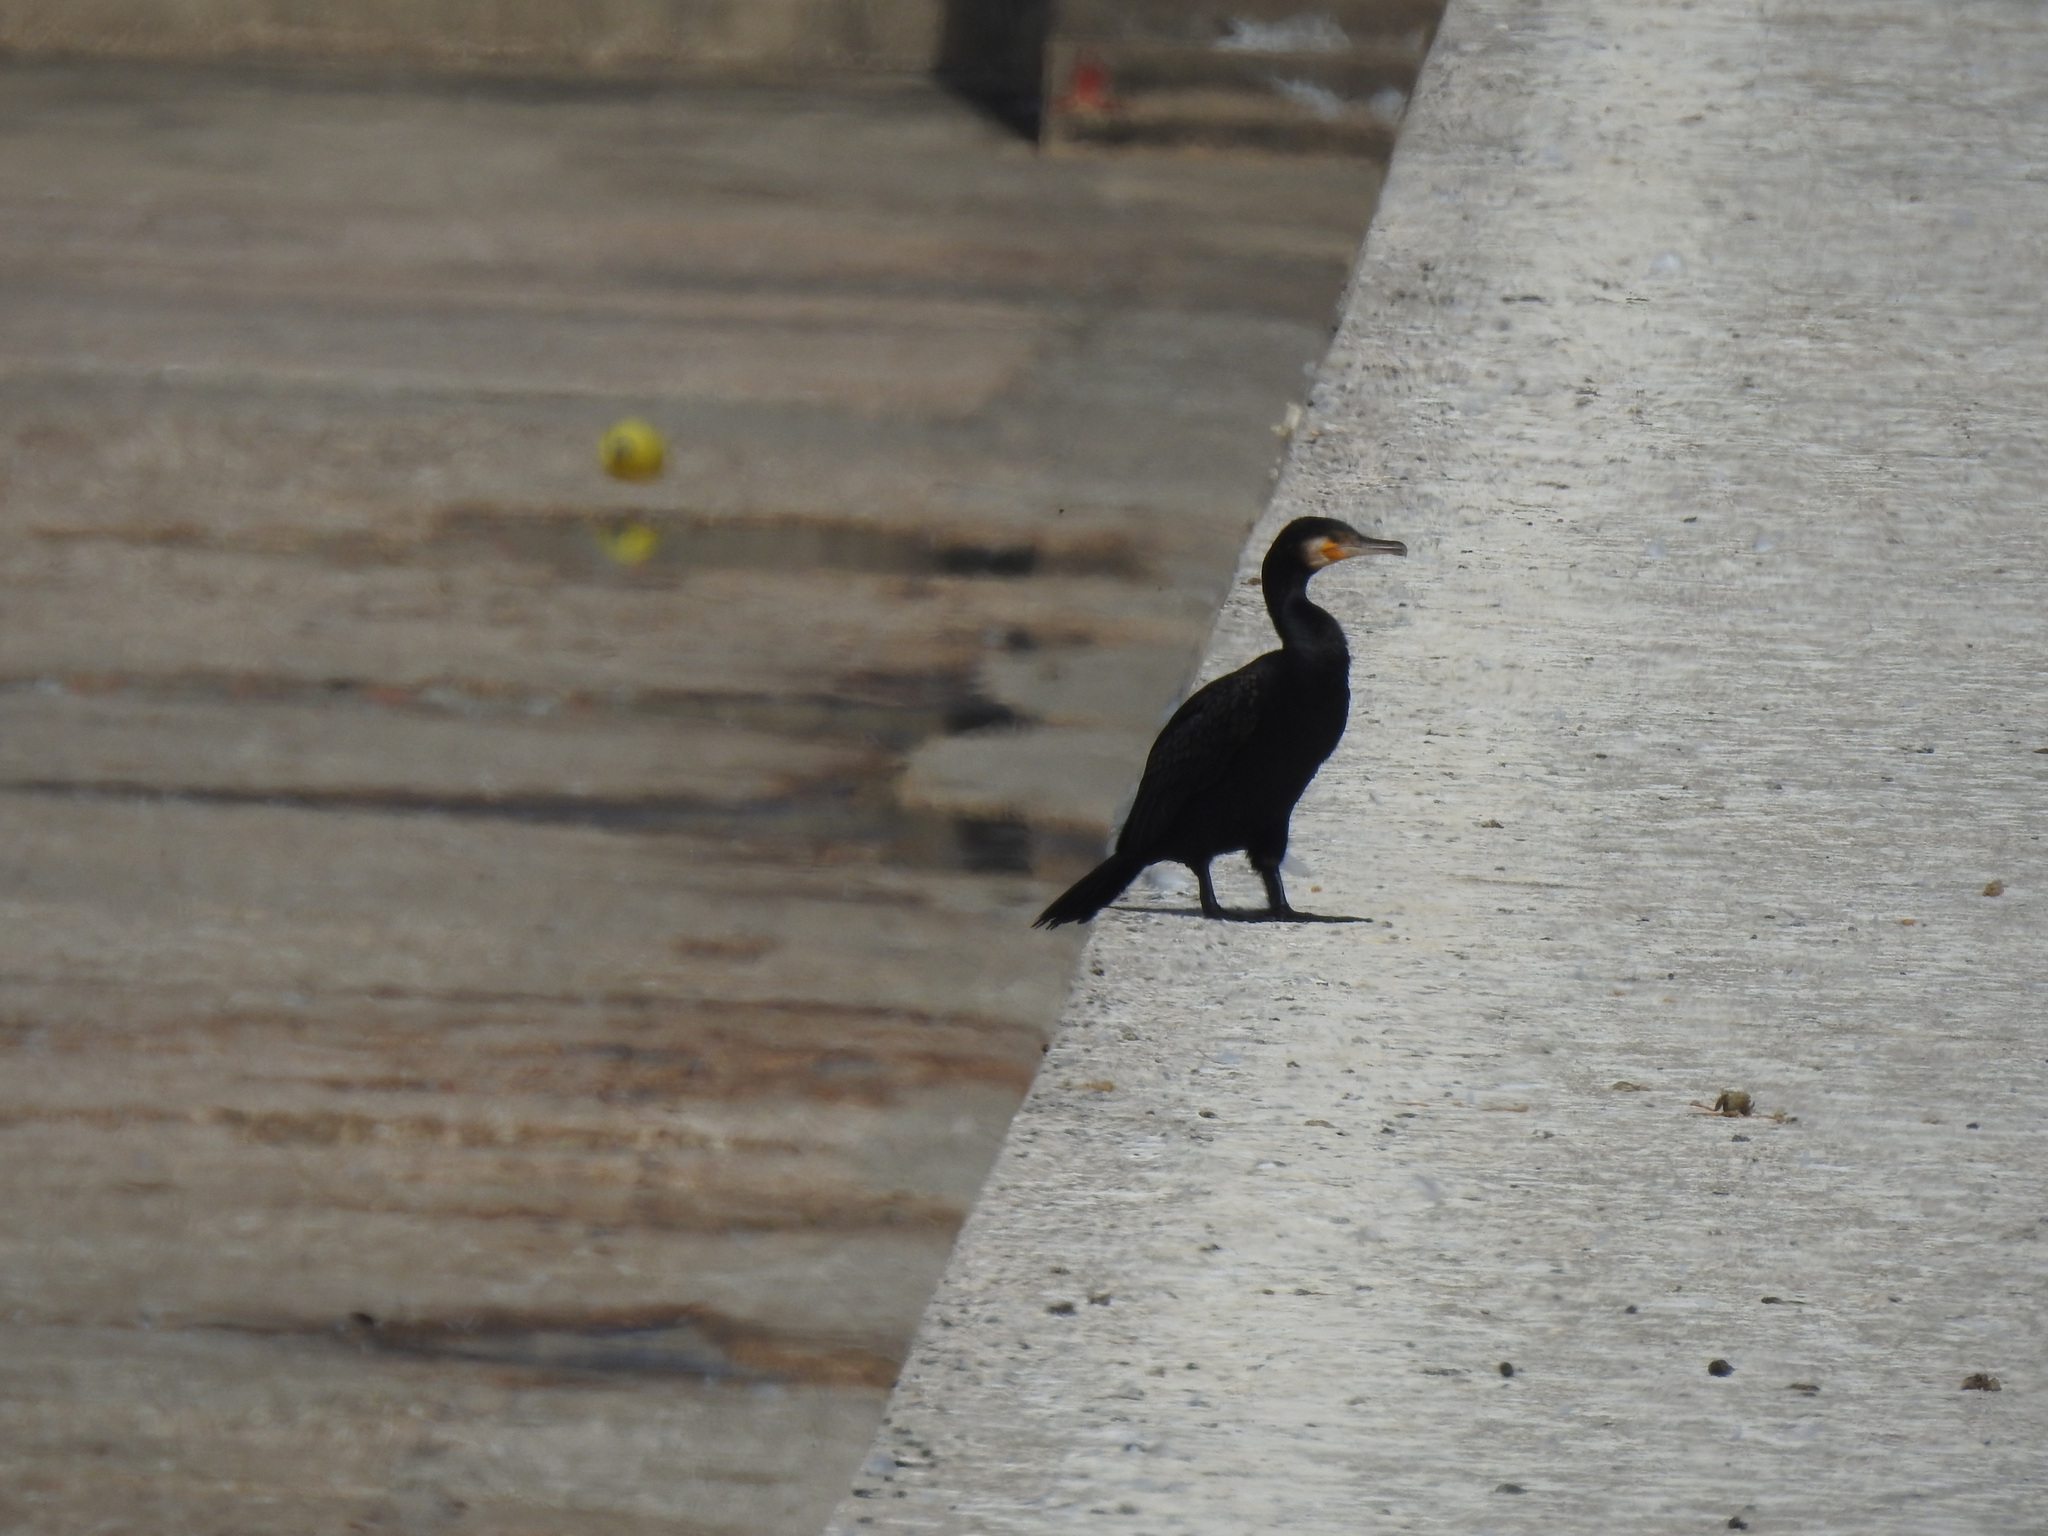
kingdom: Animalia
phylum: Chordata
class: Aves
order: Suliformes
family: Phalacrocoracidae
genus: Phalacrocorax
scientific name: Phalacrocorax carbo
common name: Great cormorant
